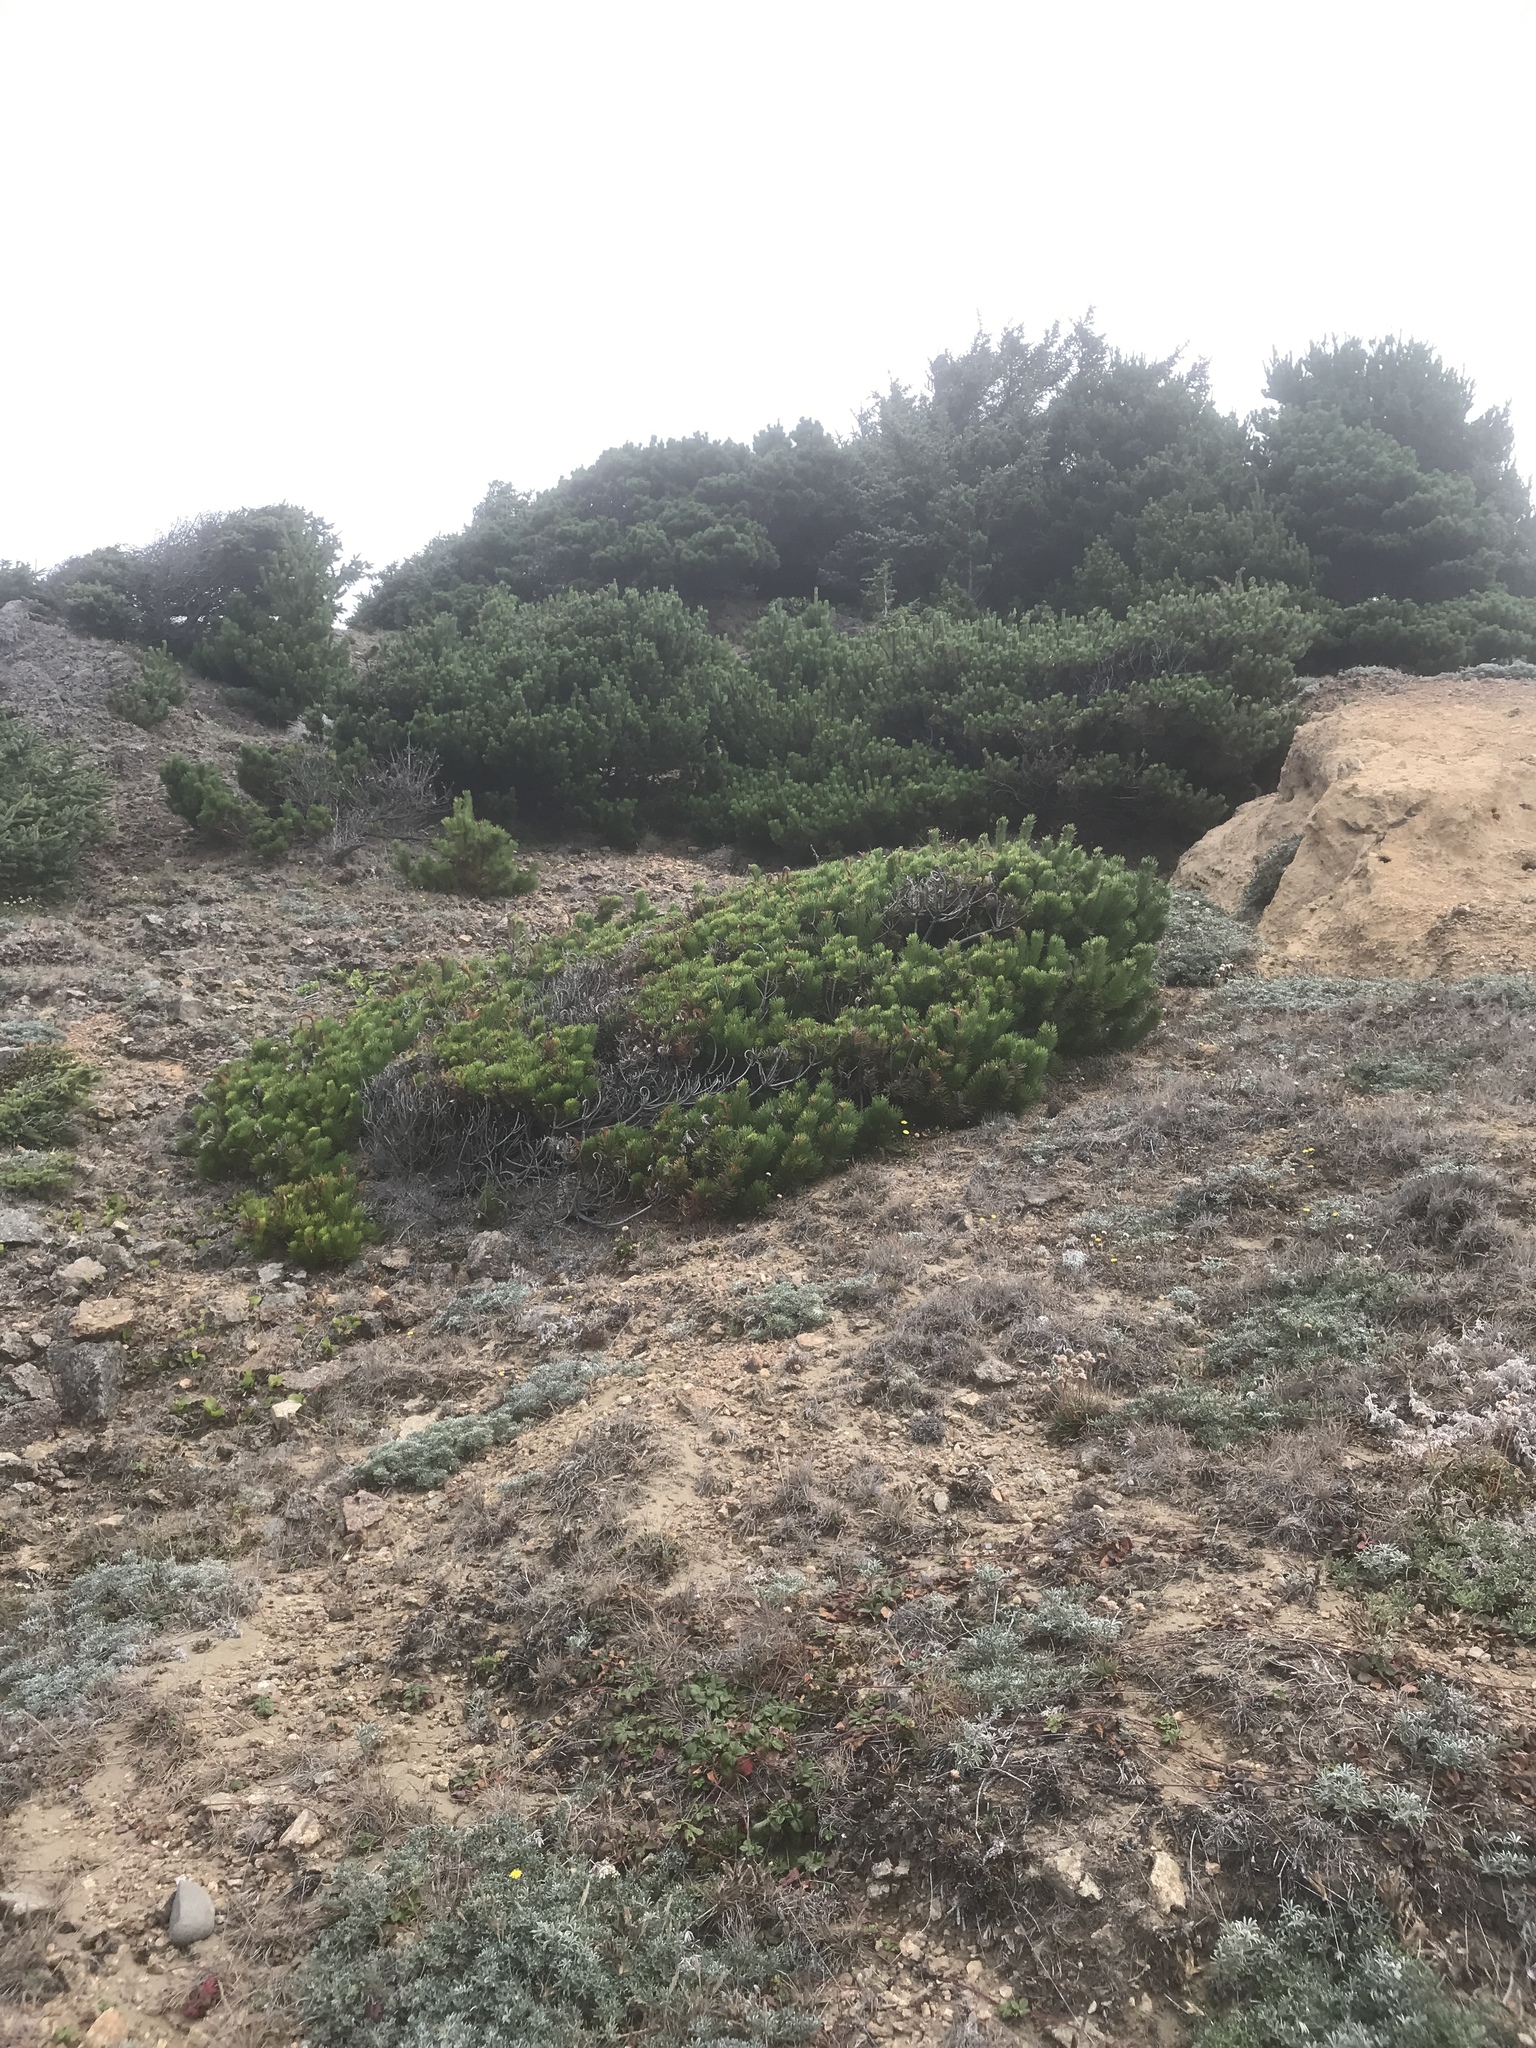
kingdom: Plantae
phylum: Tracheophyta
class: Pinopsida
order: Pinales
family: Pinaceae
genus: Pinus
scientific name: Pinus contorta
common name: Lodgepole pine
